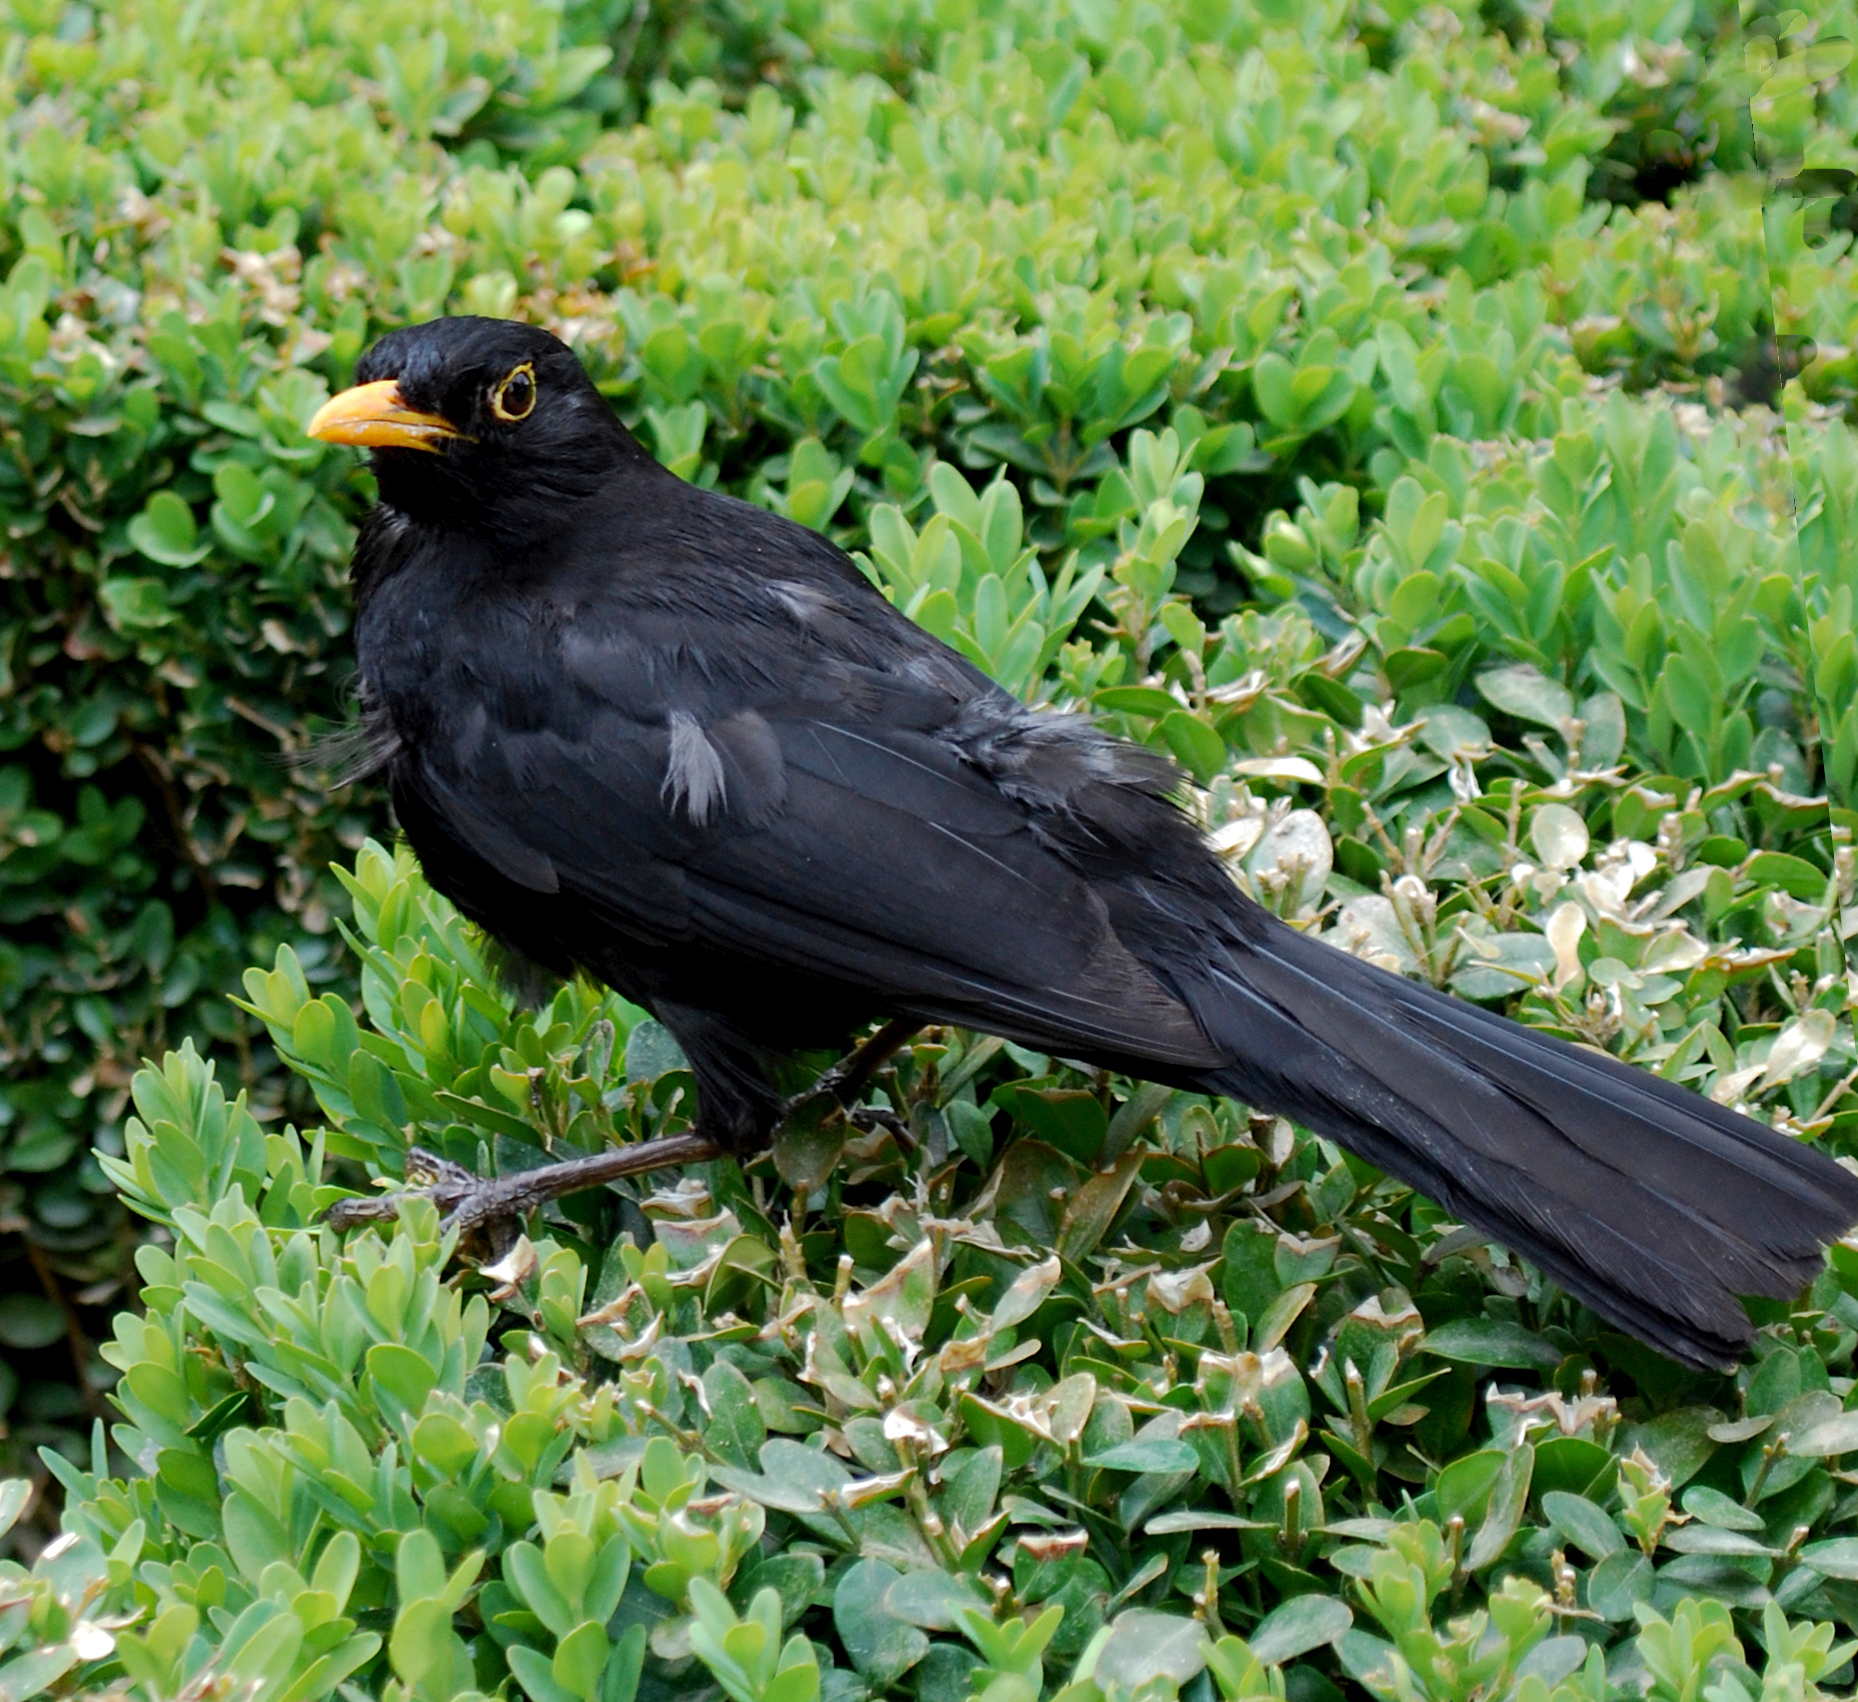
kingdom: Animalia
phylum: Chordata
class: Aves
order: Passeriformes
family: Turdidae
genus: Turdus
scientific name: Turdus merula
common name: Common blackbird
